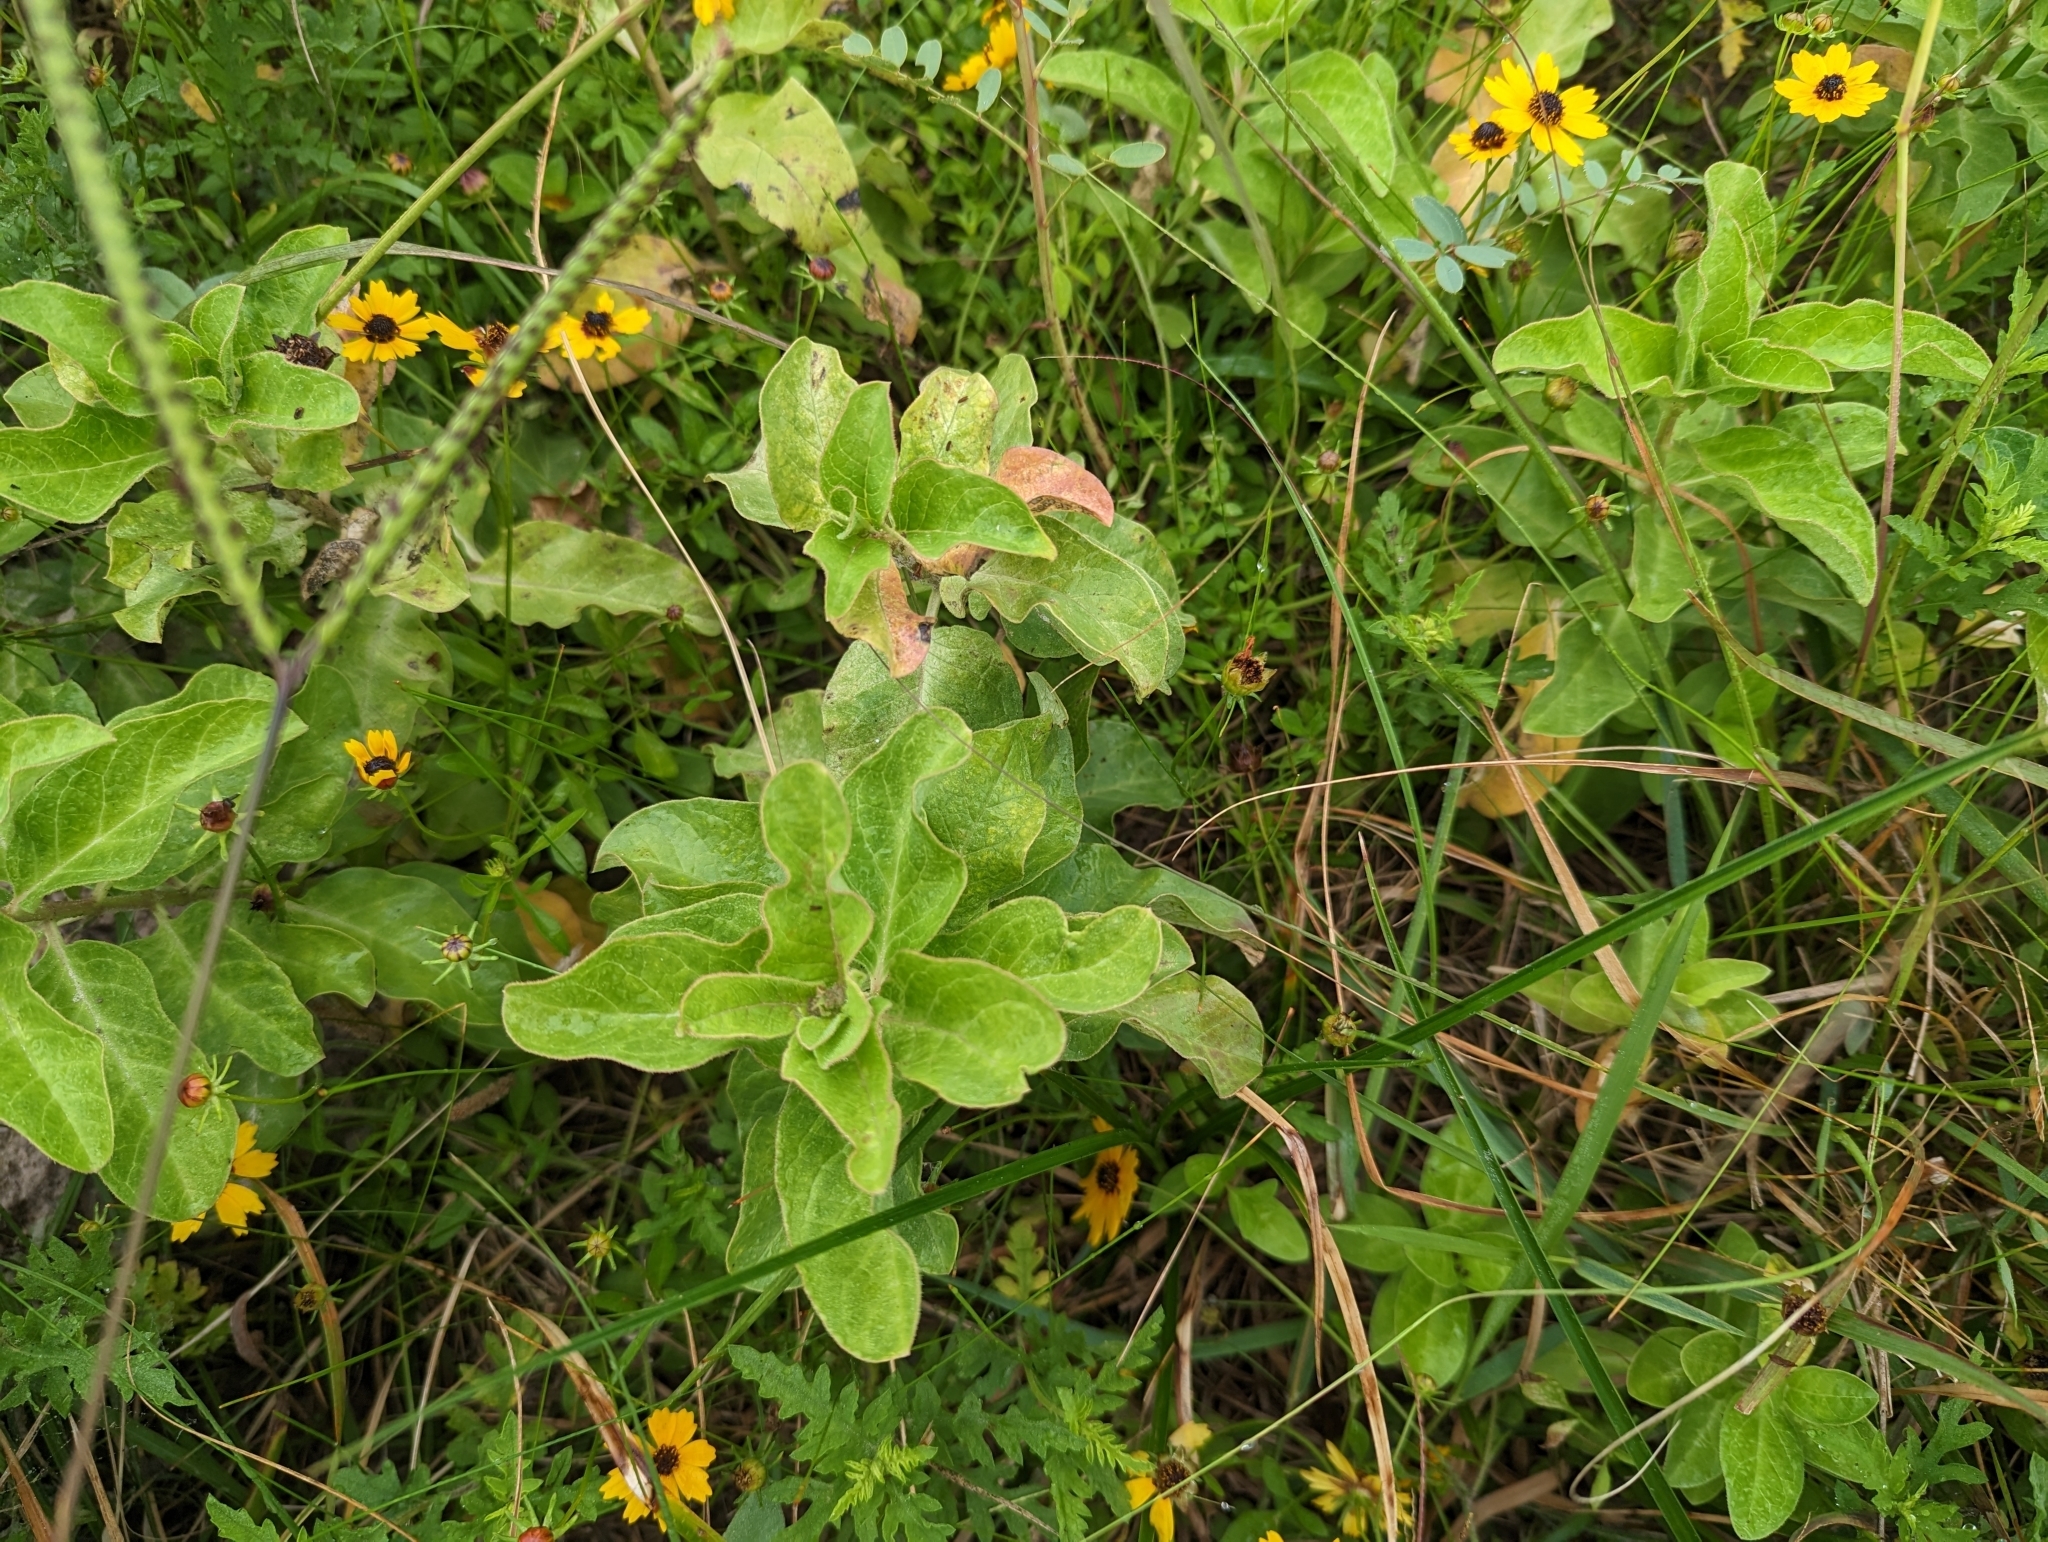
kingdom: Plantae
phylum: Tracheophyta
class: Magnoliopsida
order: Gentianales
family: Apocynaceae
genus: Asclepias
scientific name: Asclepias oenotheroides
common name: Zizotes milkweed
